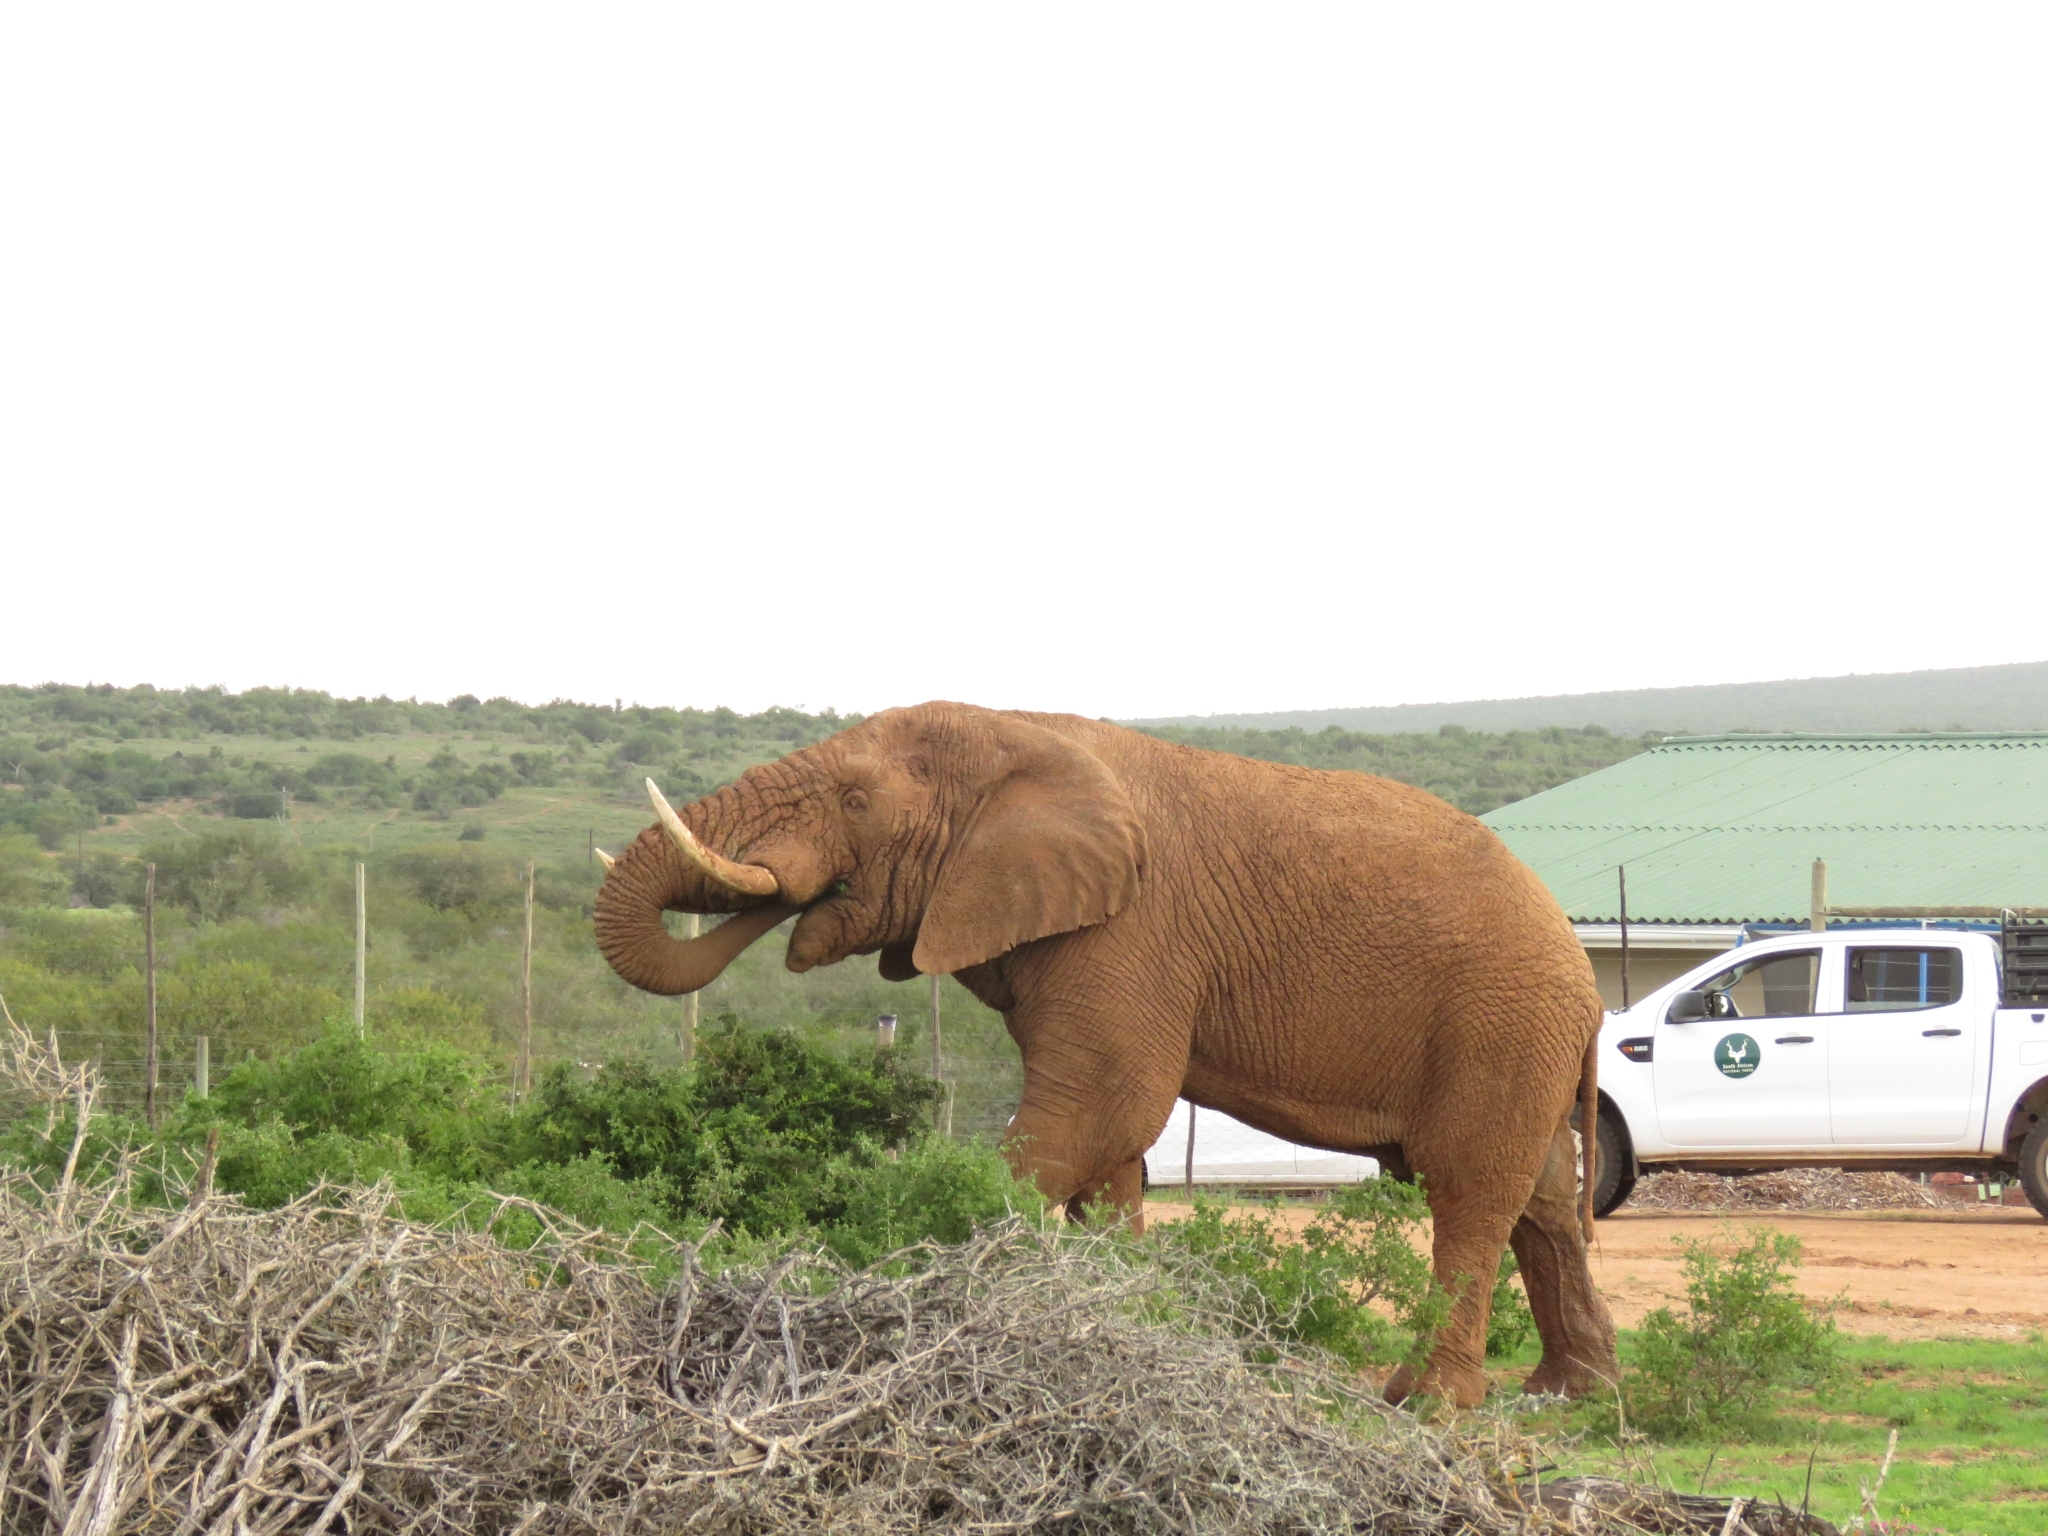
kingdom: Animalia
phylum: Chordata
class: Mammalia
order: Proboscidea
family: Elephantidae
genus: Loxodonta
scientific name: Loxodonta africana
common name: African elephant
